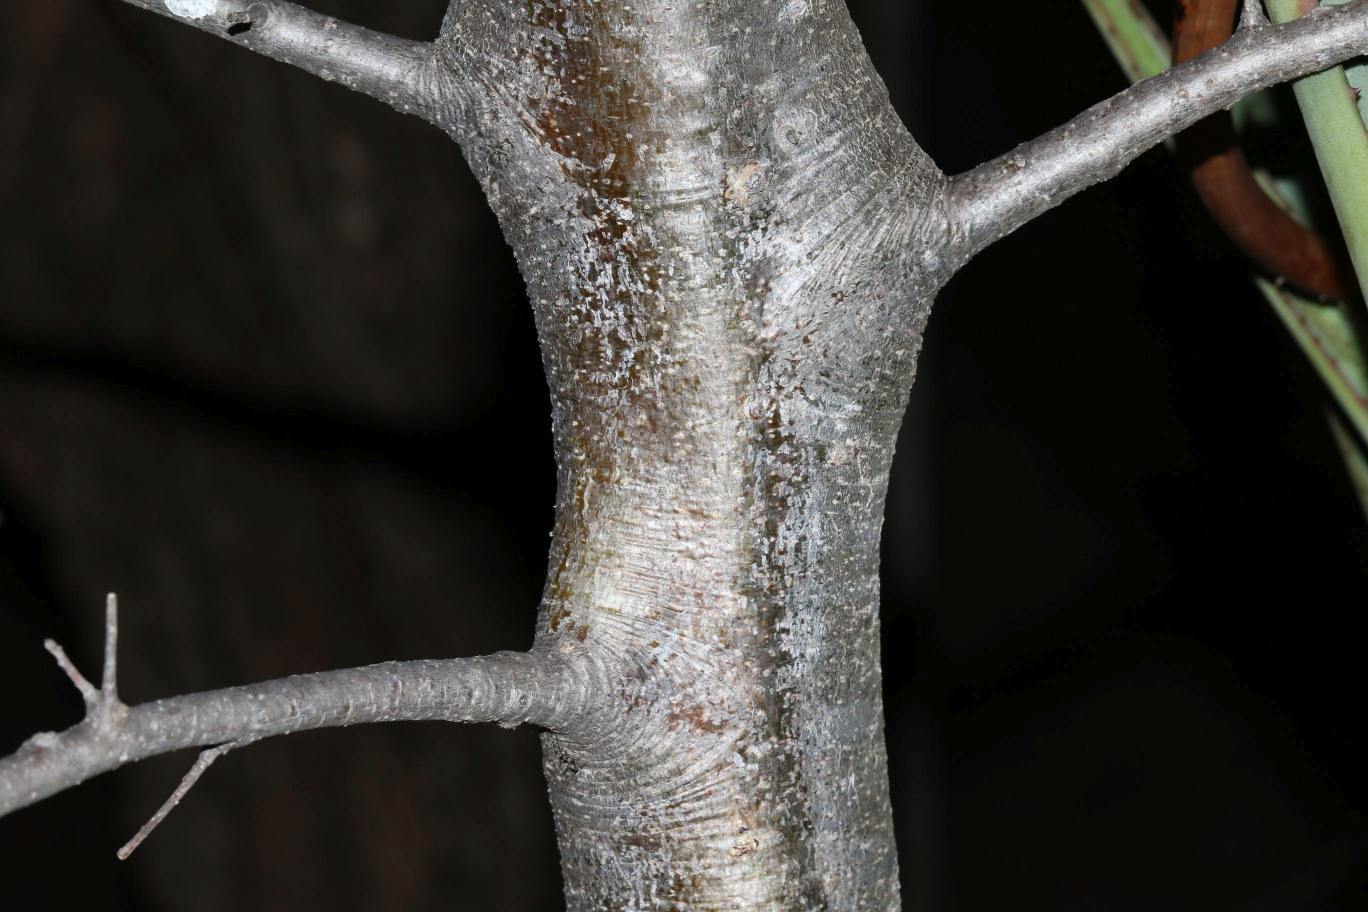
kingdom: Plantae
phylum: Tracheophyta
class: Magnoliopsida
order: Sapindales
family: Burseraceae
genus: Commiphora
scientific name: Commiphora mollis
